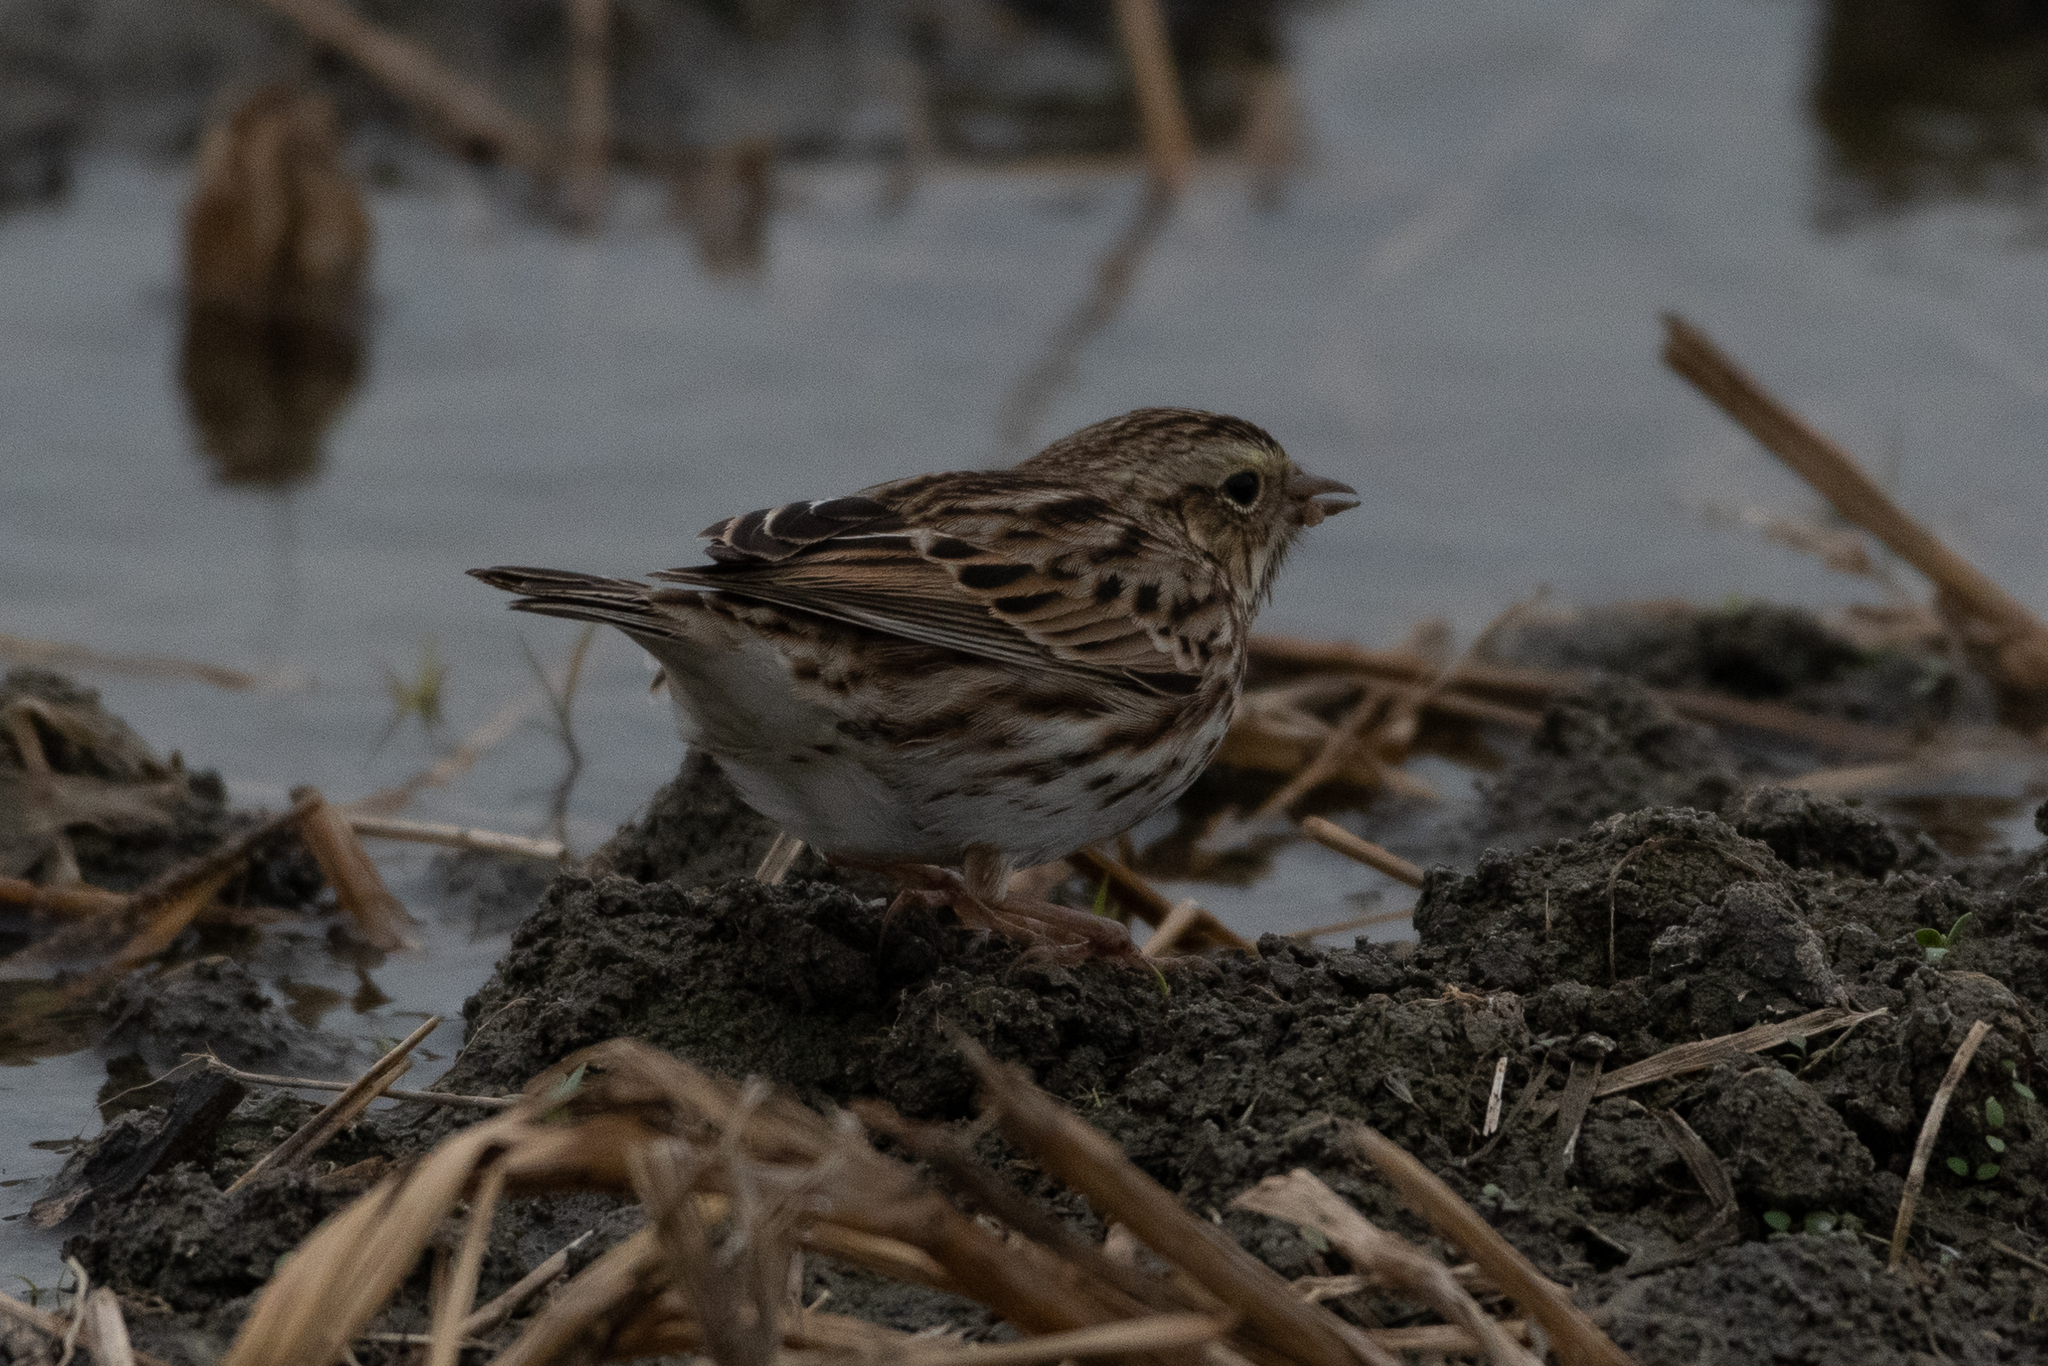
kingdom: Animalia
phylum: Chordata
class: Aves
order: Passeriformes
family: Passerellidae
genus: Passerculus
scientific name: Passerculus sandwichensis
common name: Savannah sparrow
